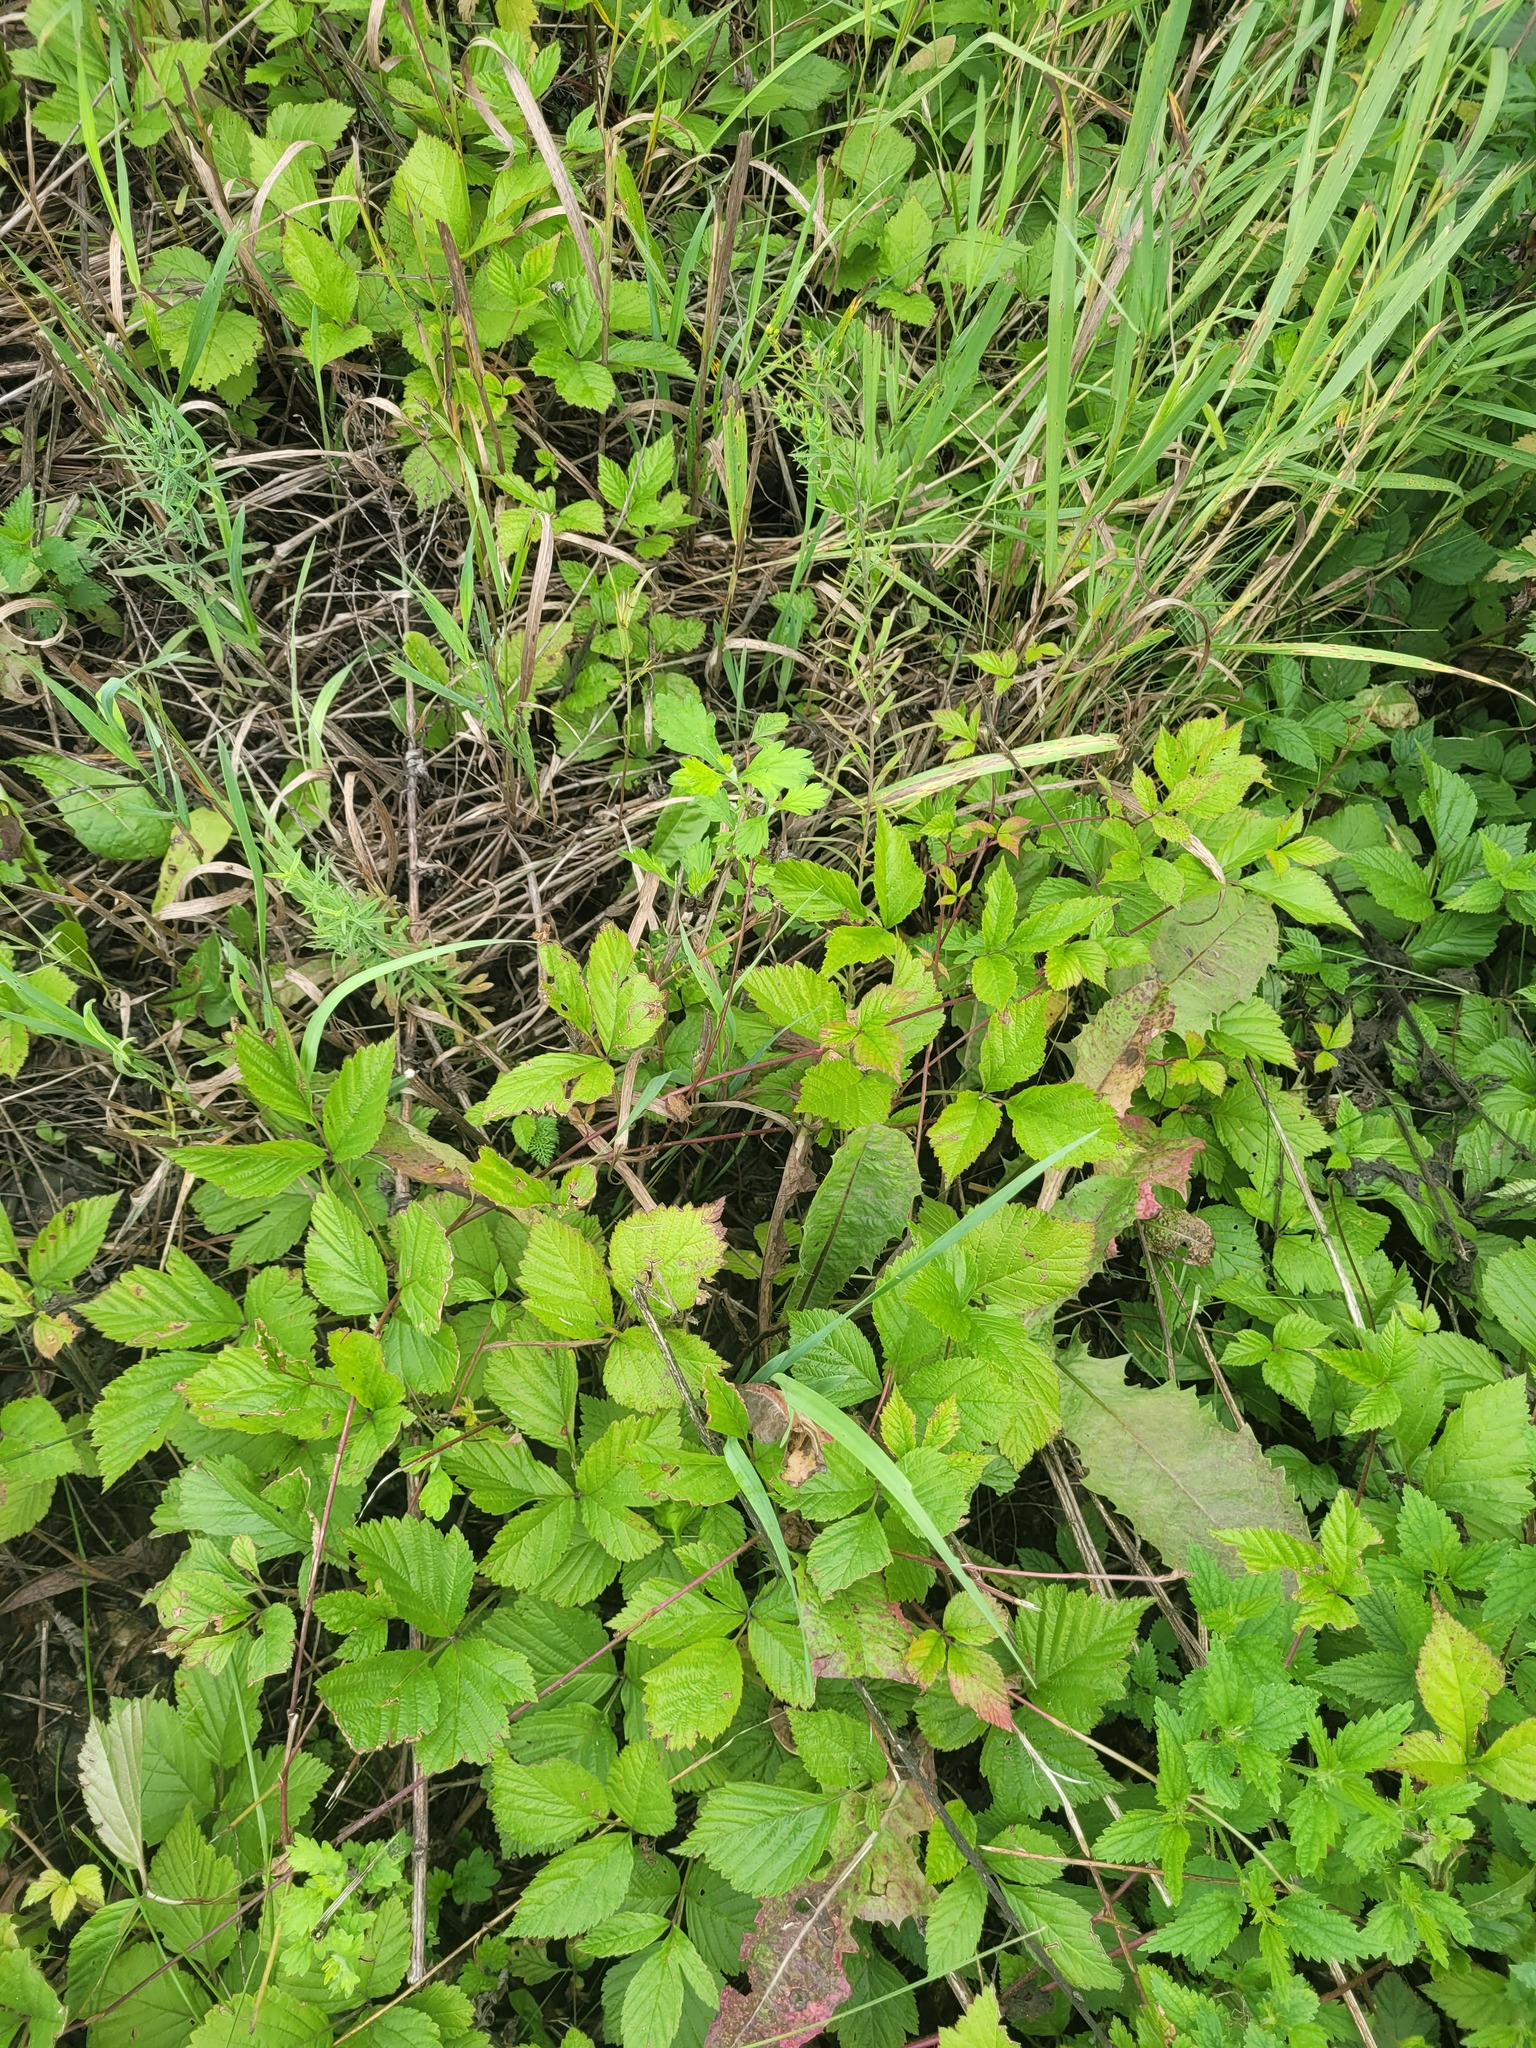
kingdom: Plantae
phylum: Tracheophyta
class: Magnoliopsida
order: Rosales
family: Rosaceae
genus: Rubus
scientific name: Rubus saxatilis
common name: Stone bramble
